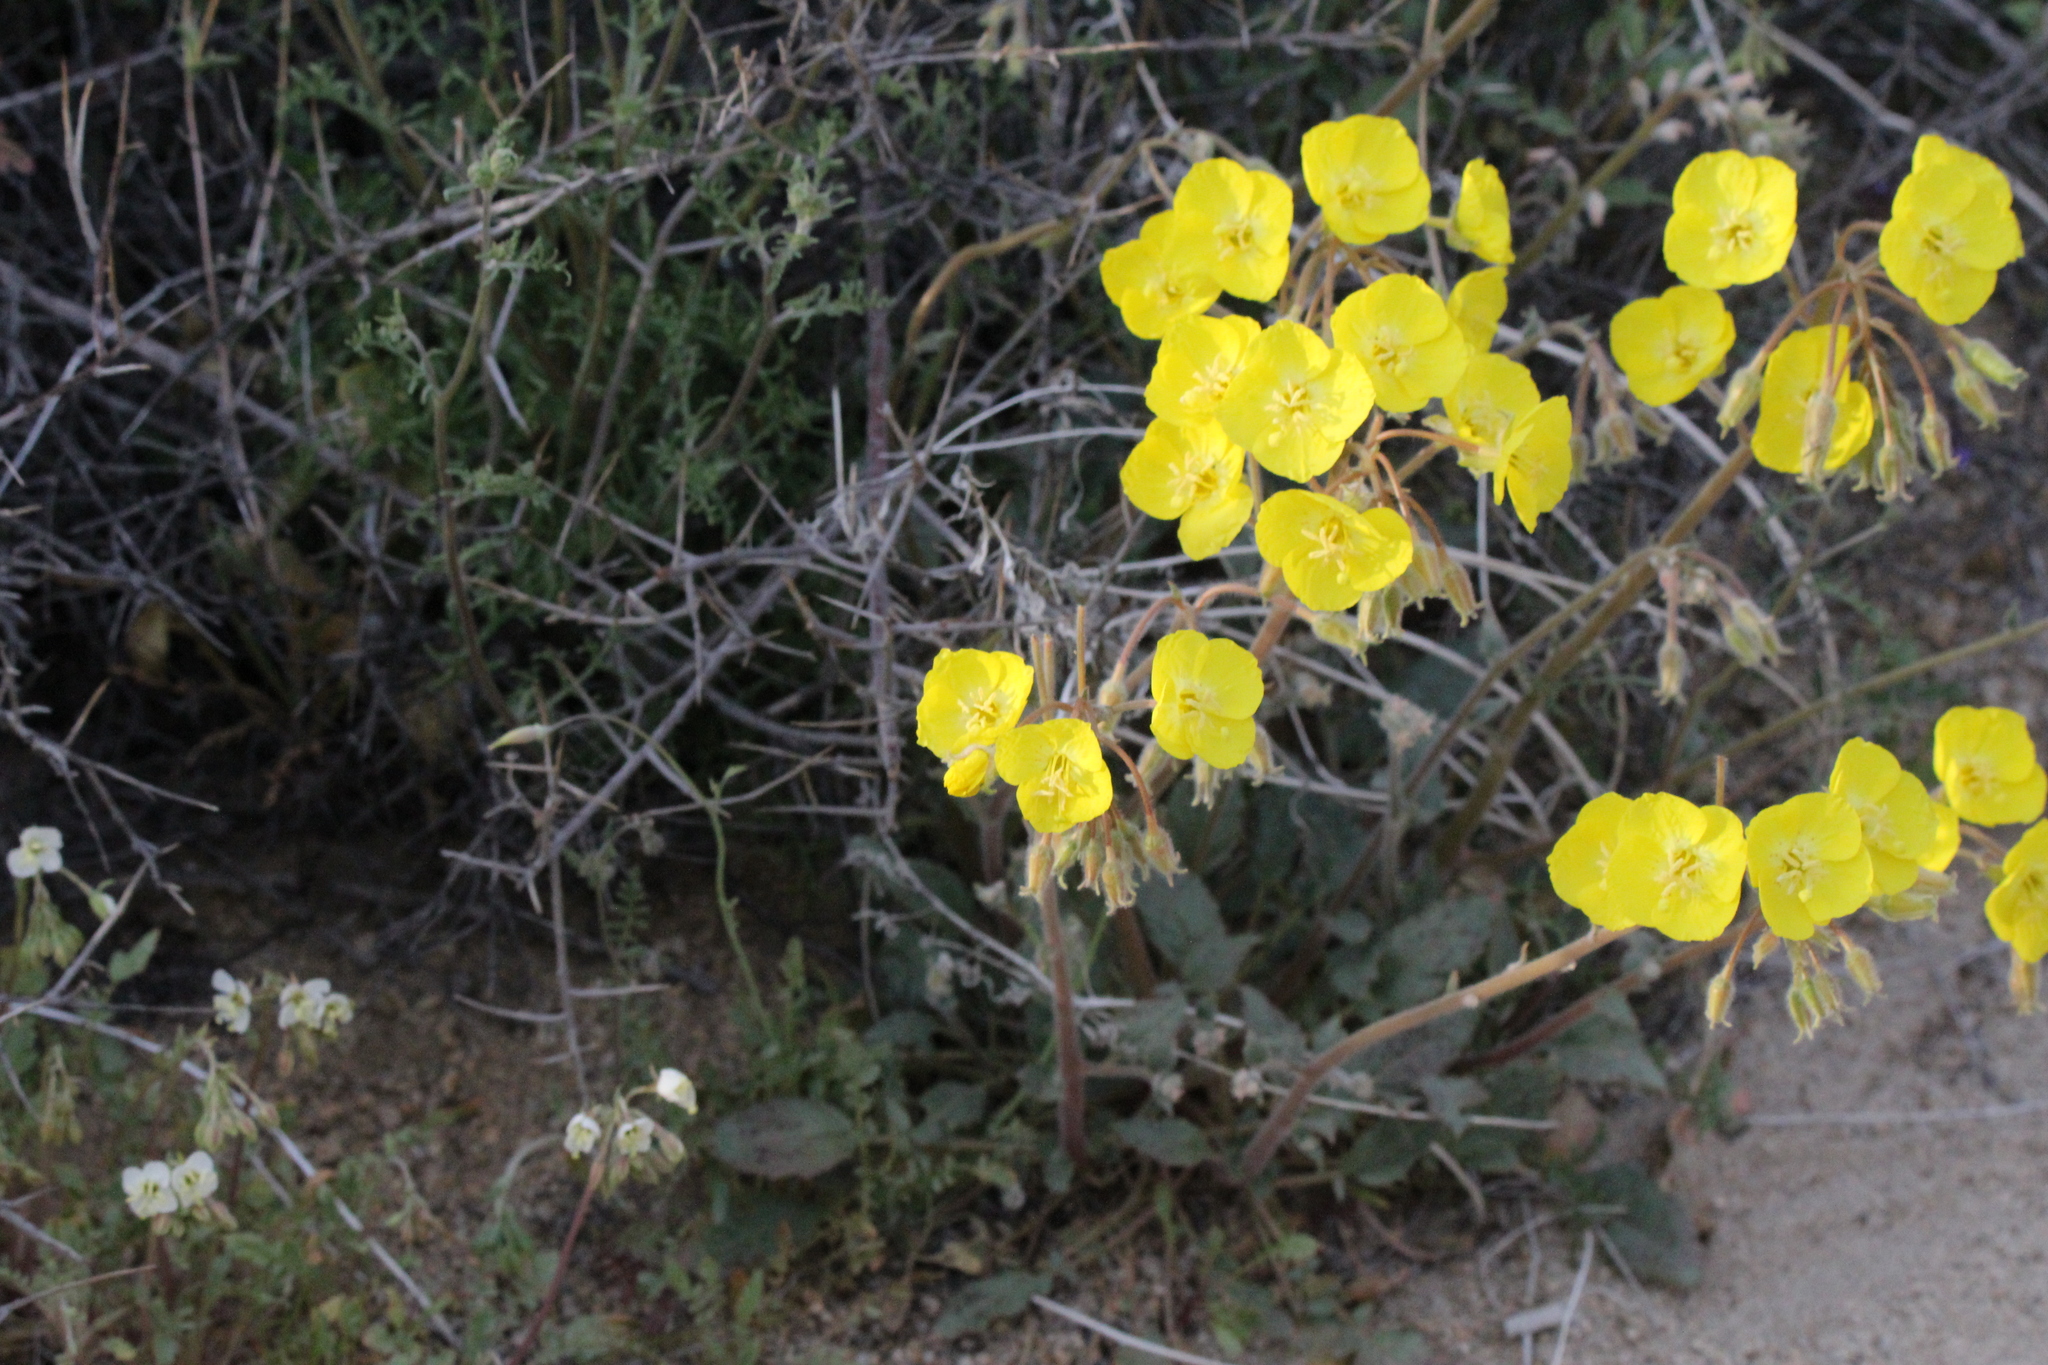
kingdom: Plantae
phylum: Tracheophyta
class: Magnoliopsida
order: Myrtales
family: Onagraceae
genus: Chylismia
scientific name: Chylismia brevipes
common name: Yellow cups
